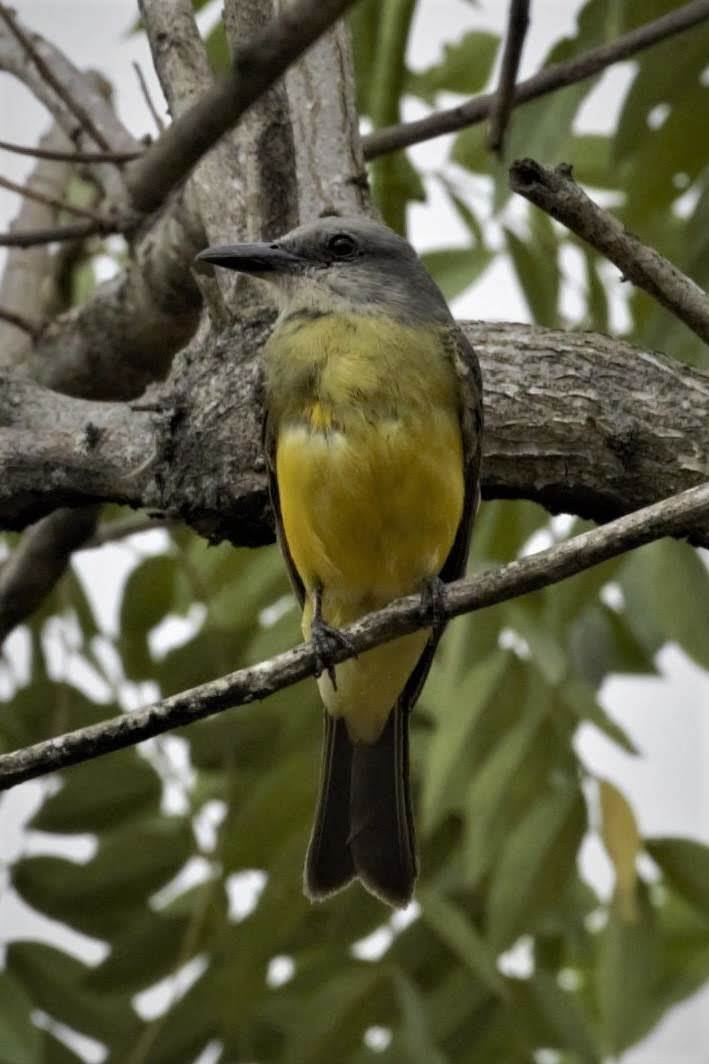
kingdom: Animalia
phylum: Chordata
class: Aves
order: Passeriformes
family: Tyrannidae
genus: Tyrannus
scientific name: Tyrannus melancholicus
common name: Tropical kingbird
